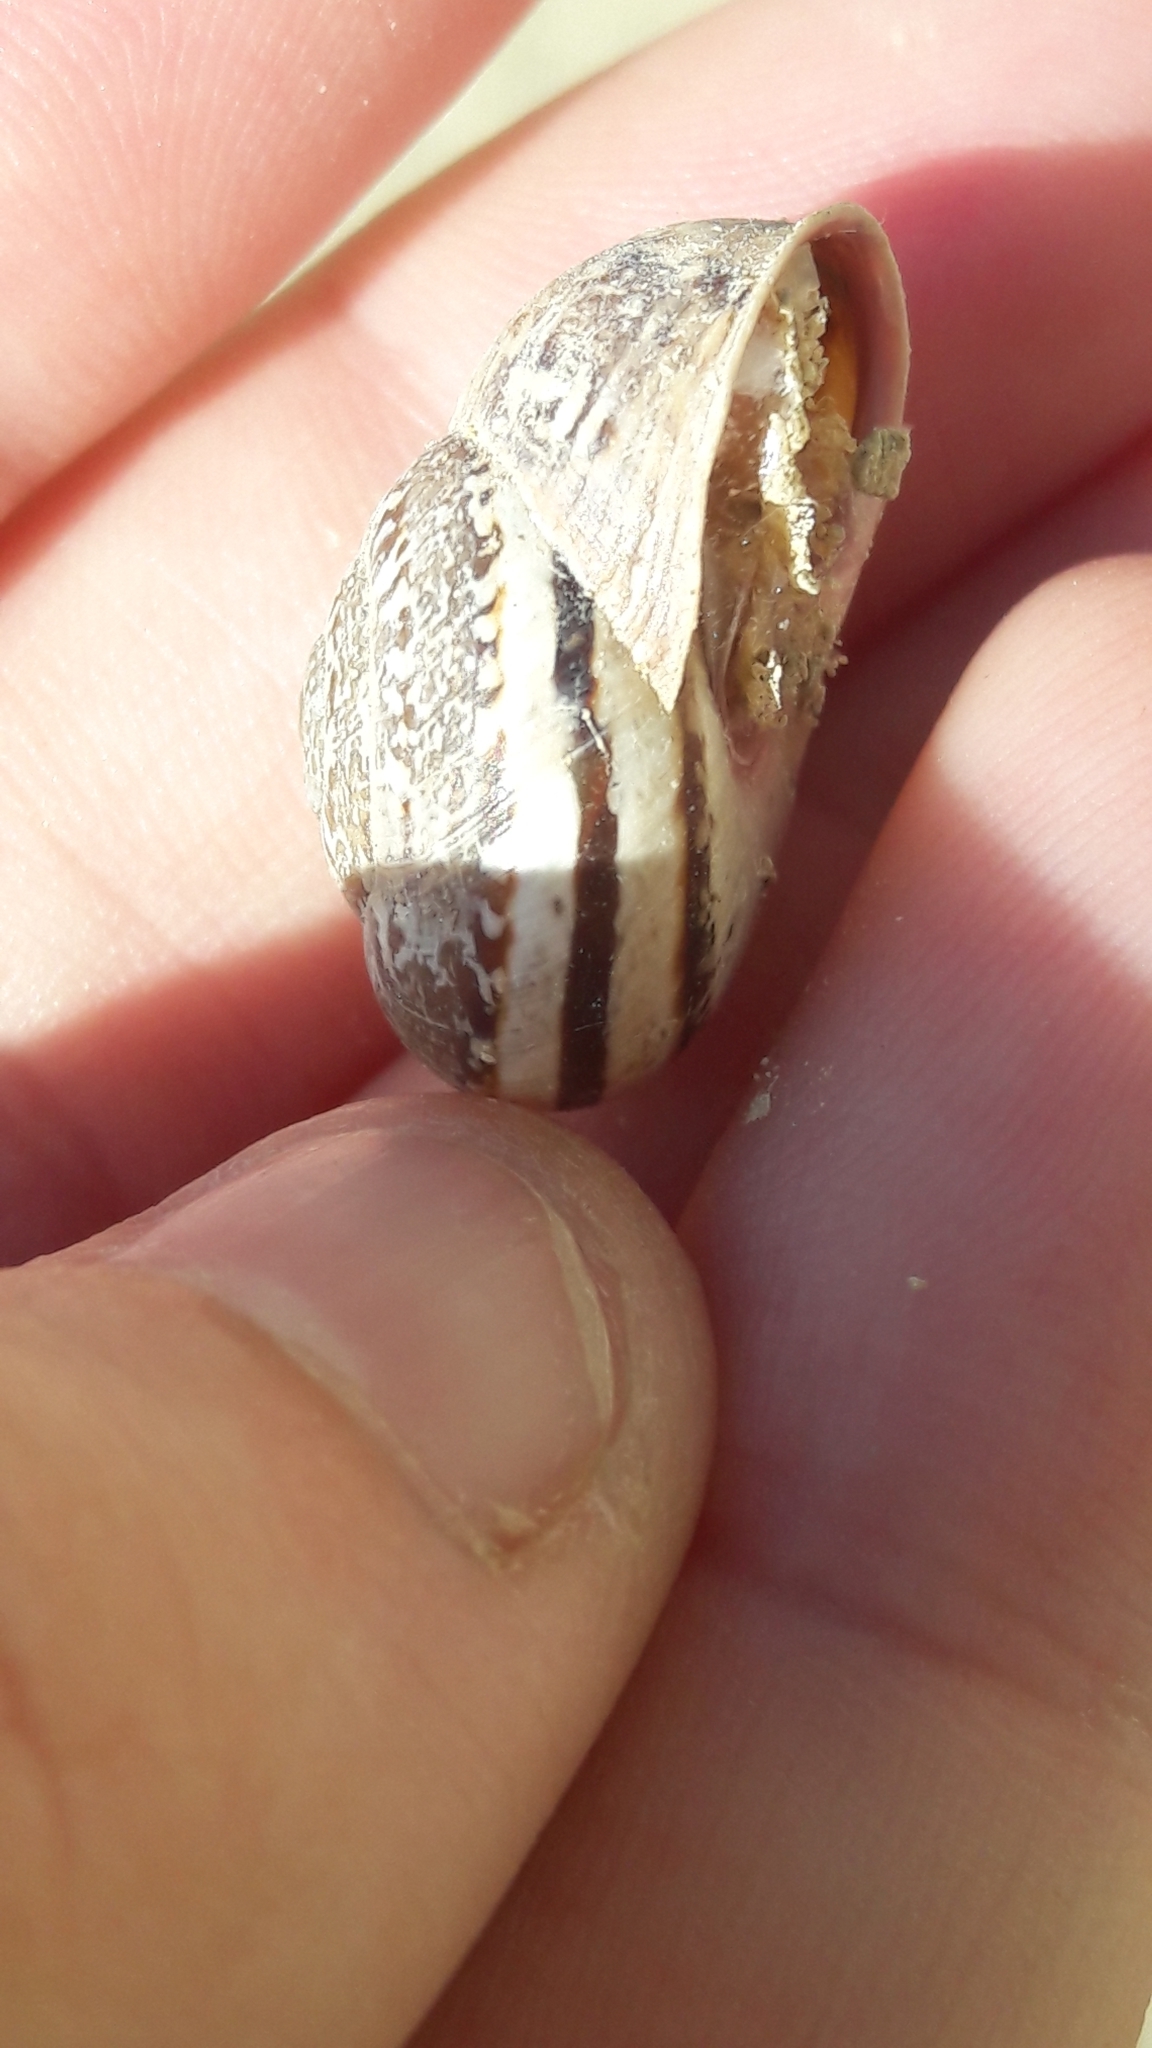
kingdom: Animalia
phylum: Mollusca
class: Gastropoda
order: Stylommatophora
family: Helicidae
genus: Iberus
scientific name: Iberus marmoratus
